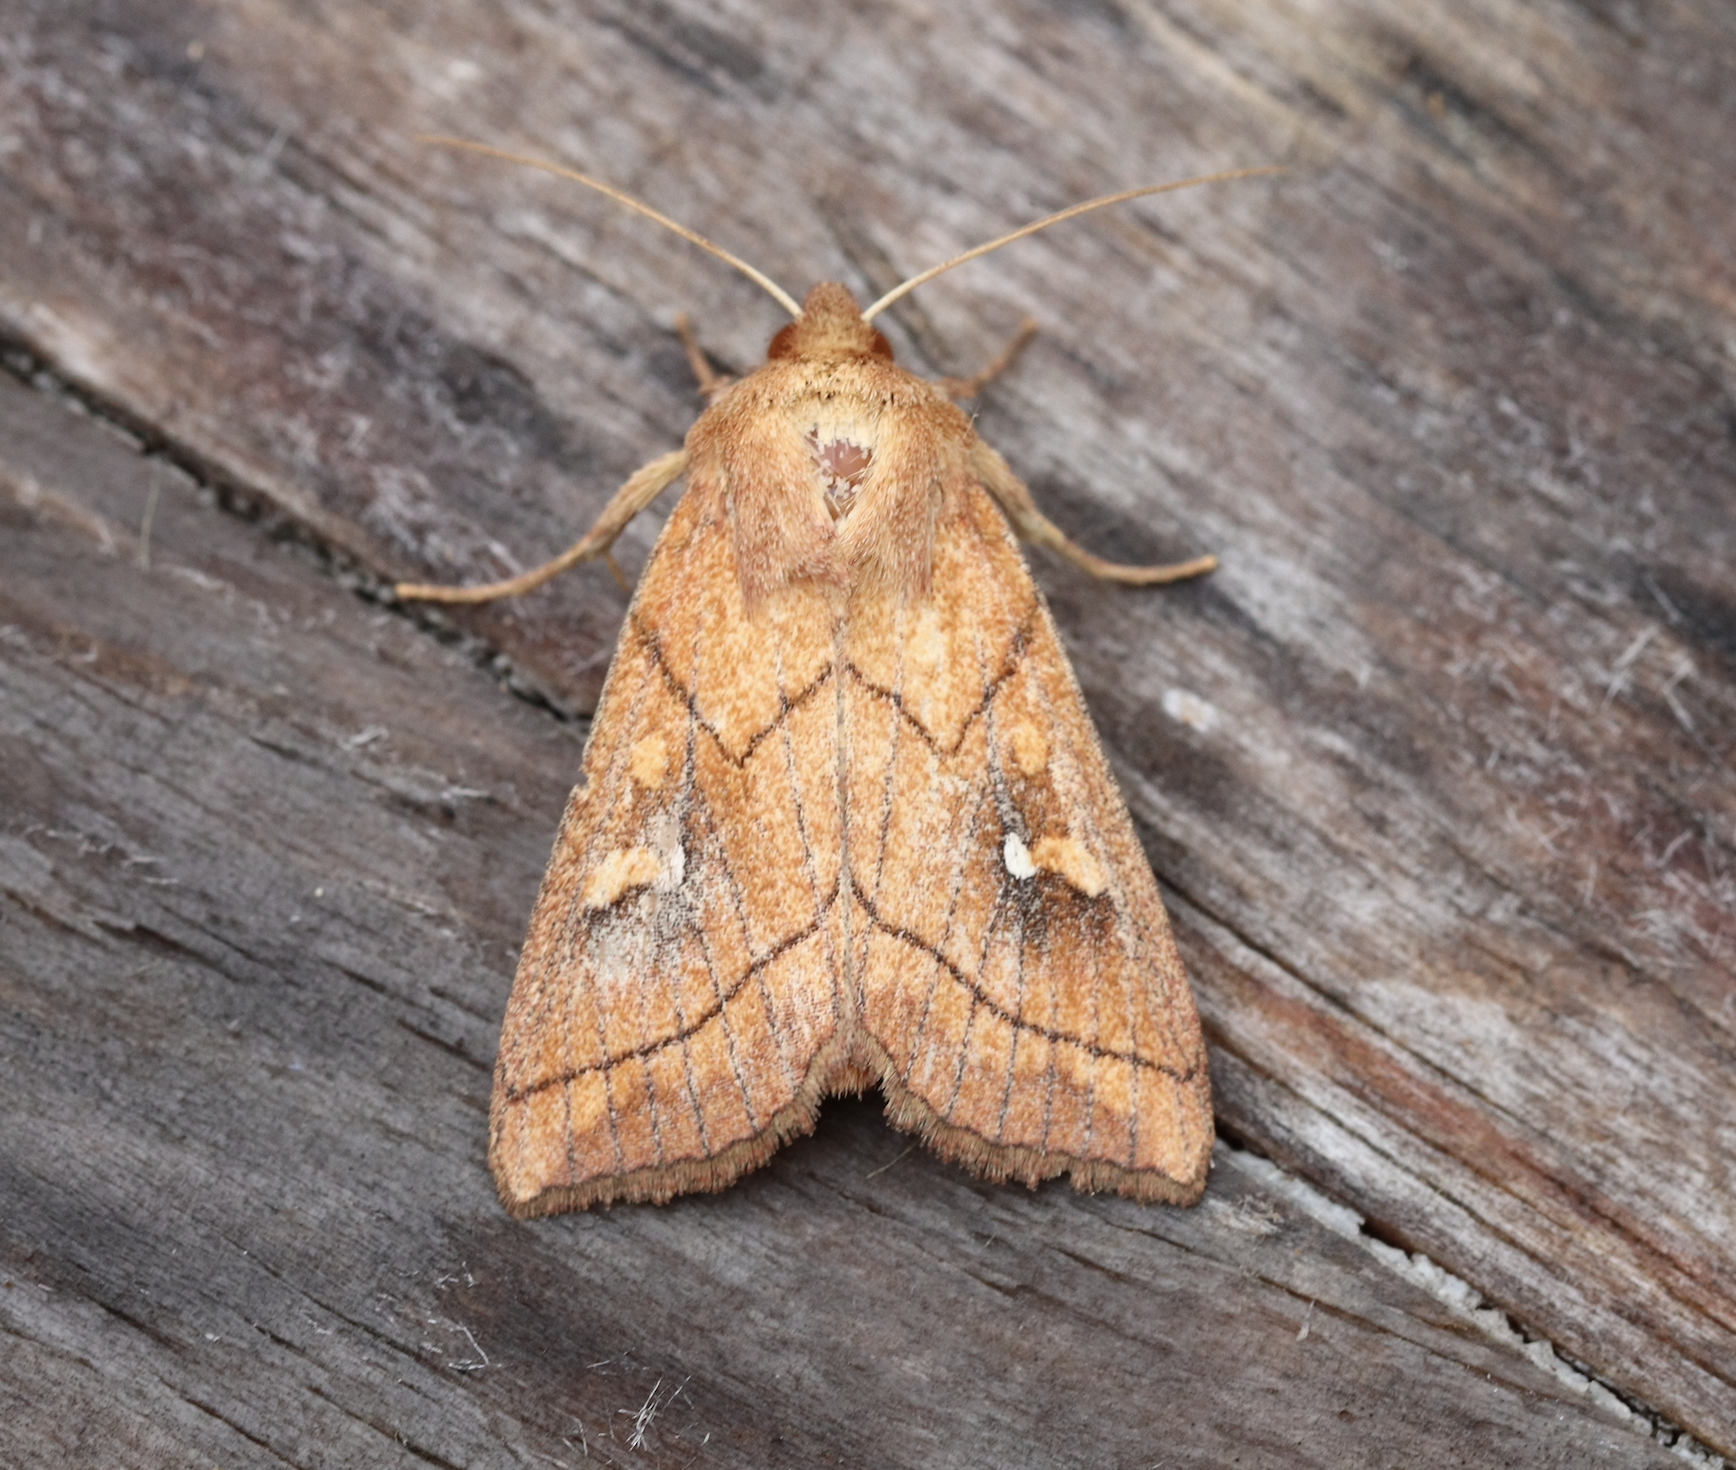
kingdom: Animalia
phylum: Arthropoda
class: Insecta
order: Lepidoptera
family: Noctuidae
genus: Mythimna
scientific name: Mythimna conigera
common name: Brown-line bright-eye
